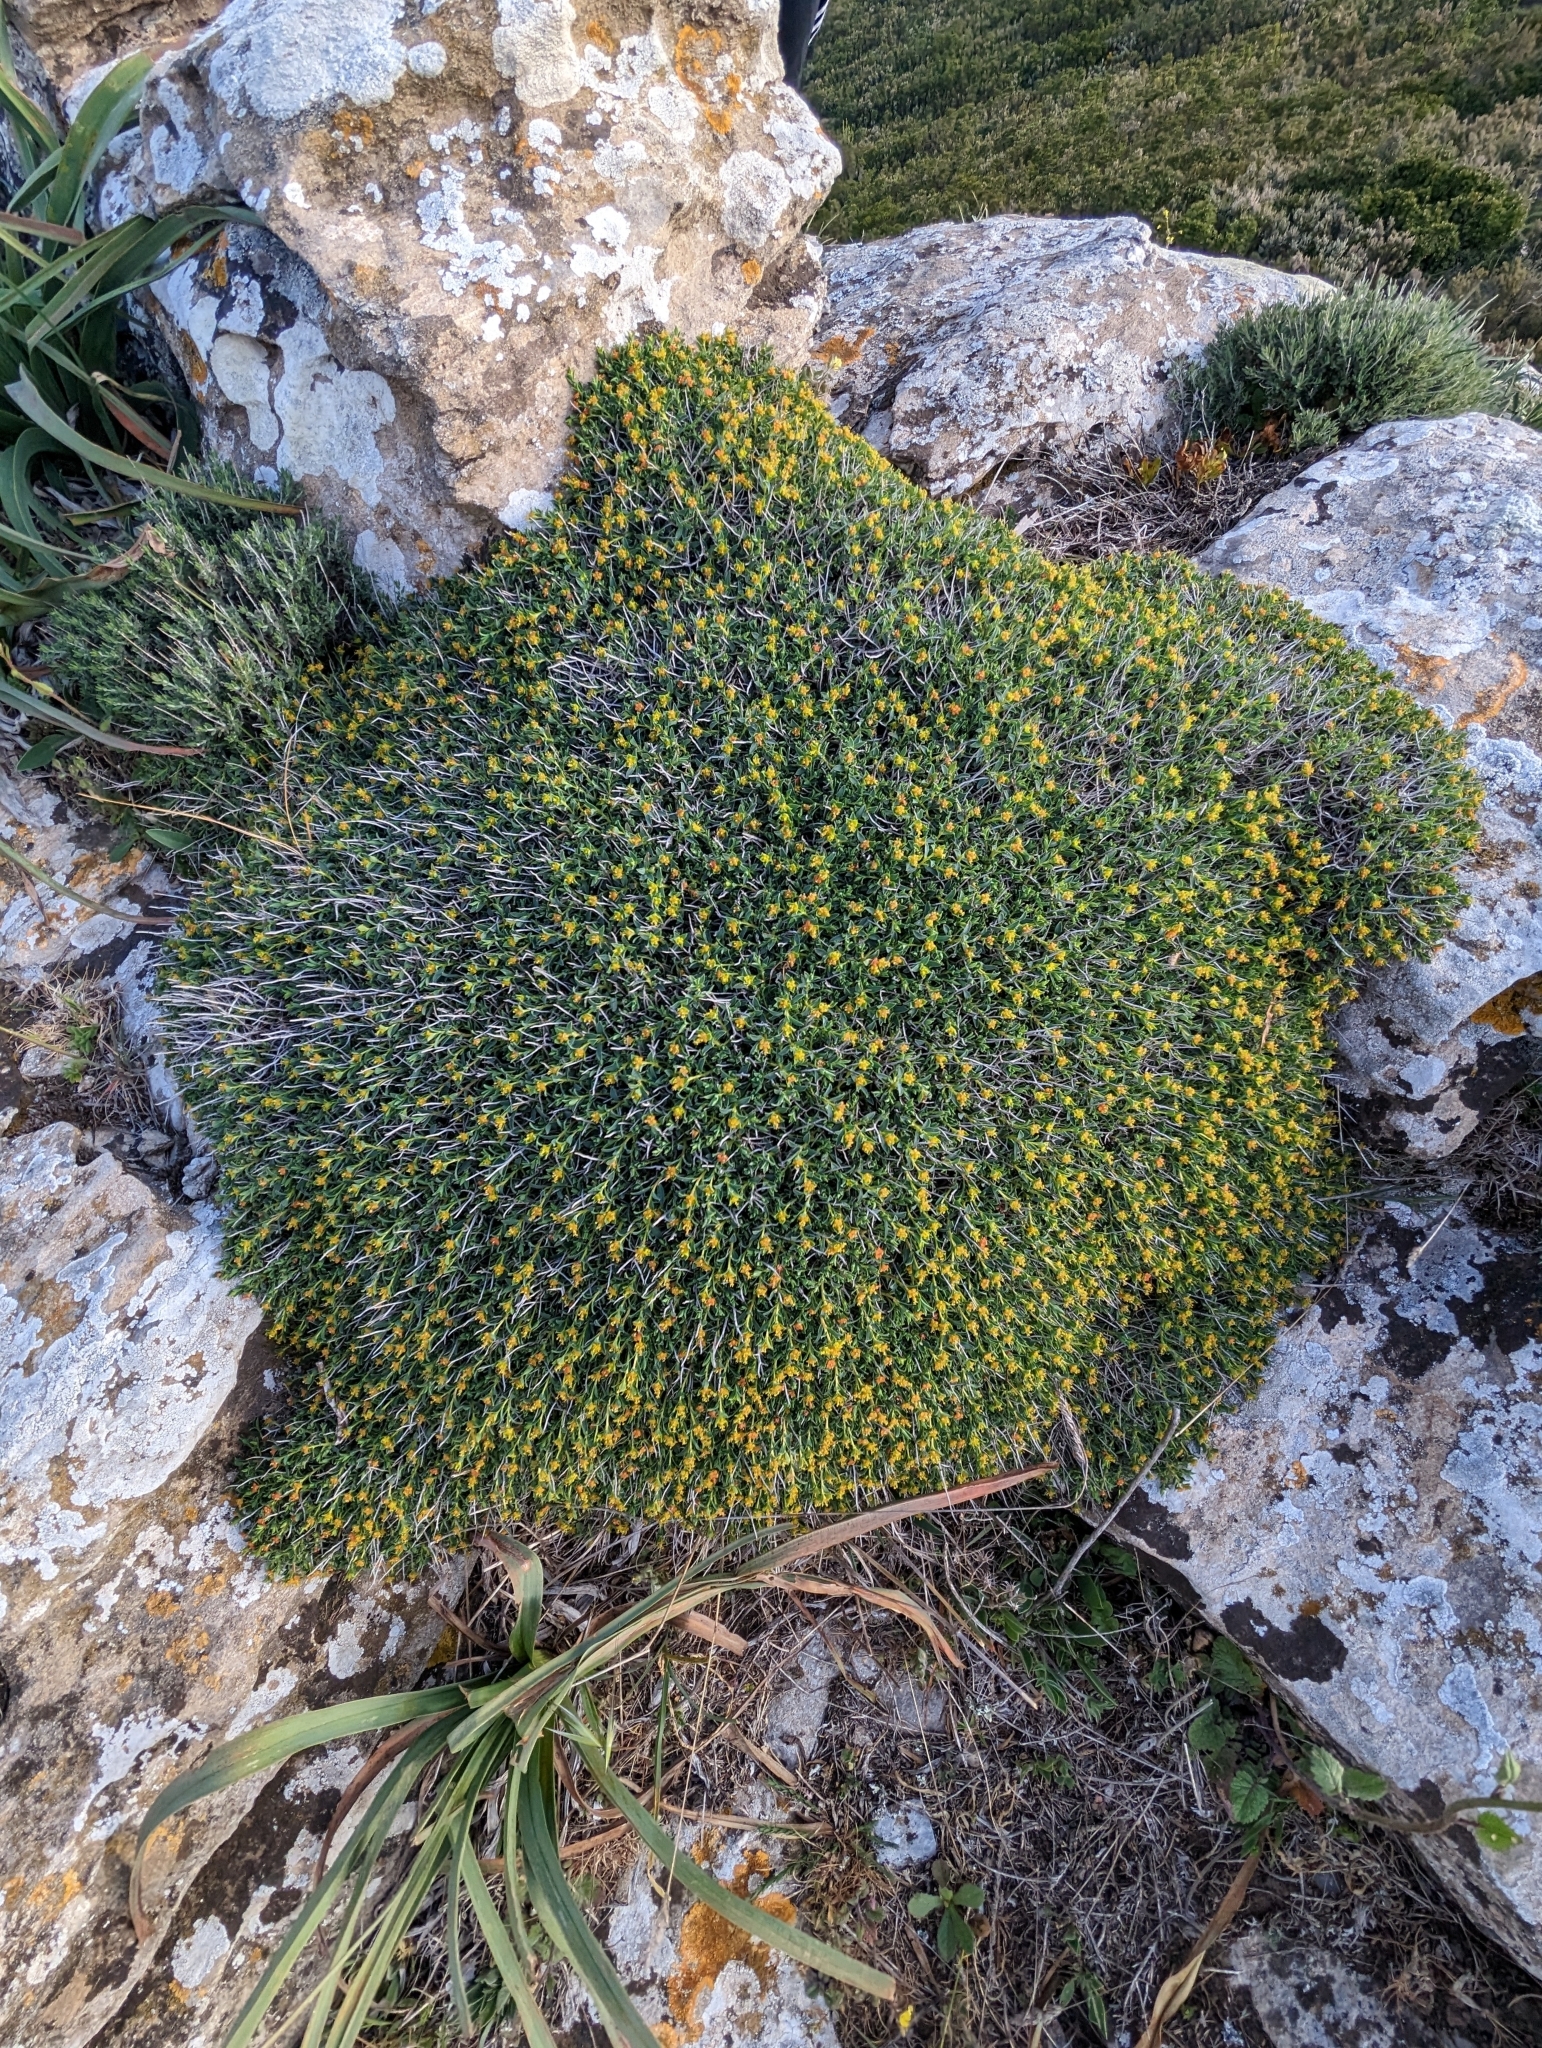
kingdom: Plantae
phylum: Tracheophyta
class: Magnoliopsida
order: Malpighiales
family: Euphorbiaceae
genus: Euphorbia
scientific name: Euphorbia spinosa
